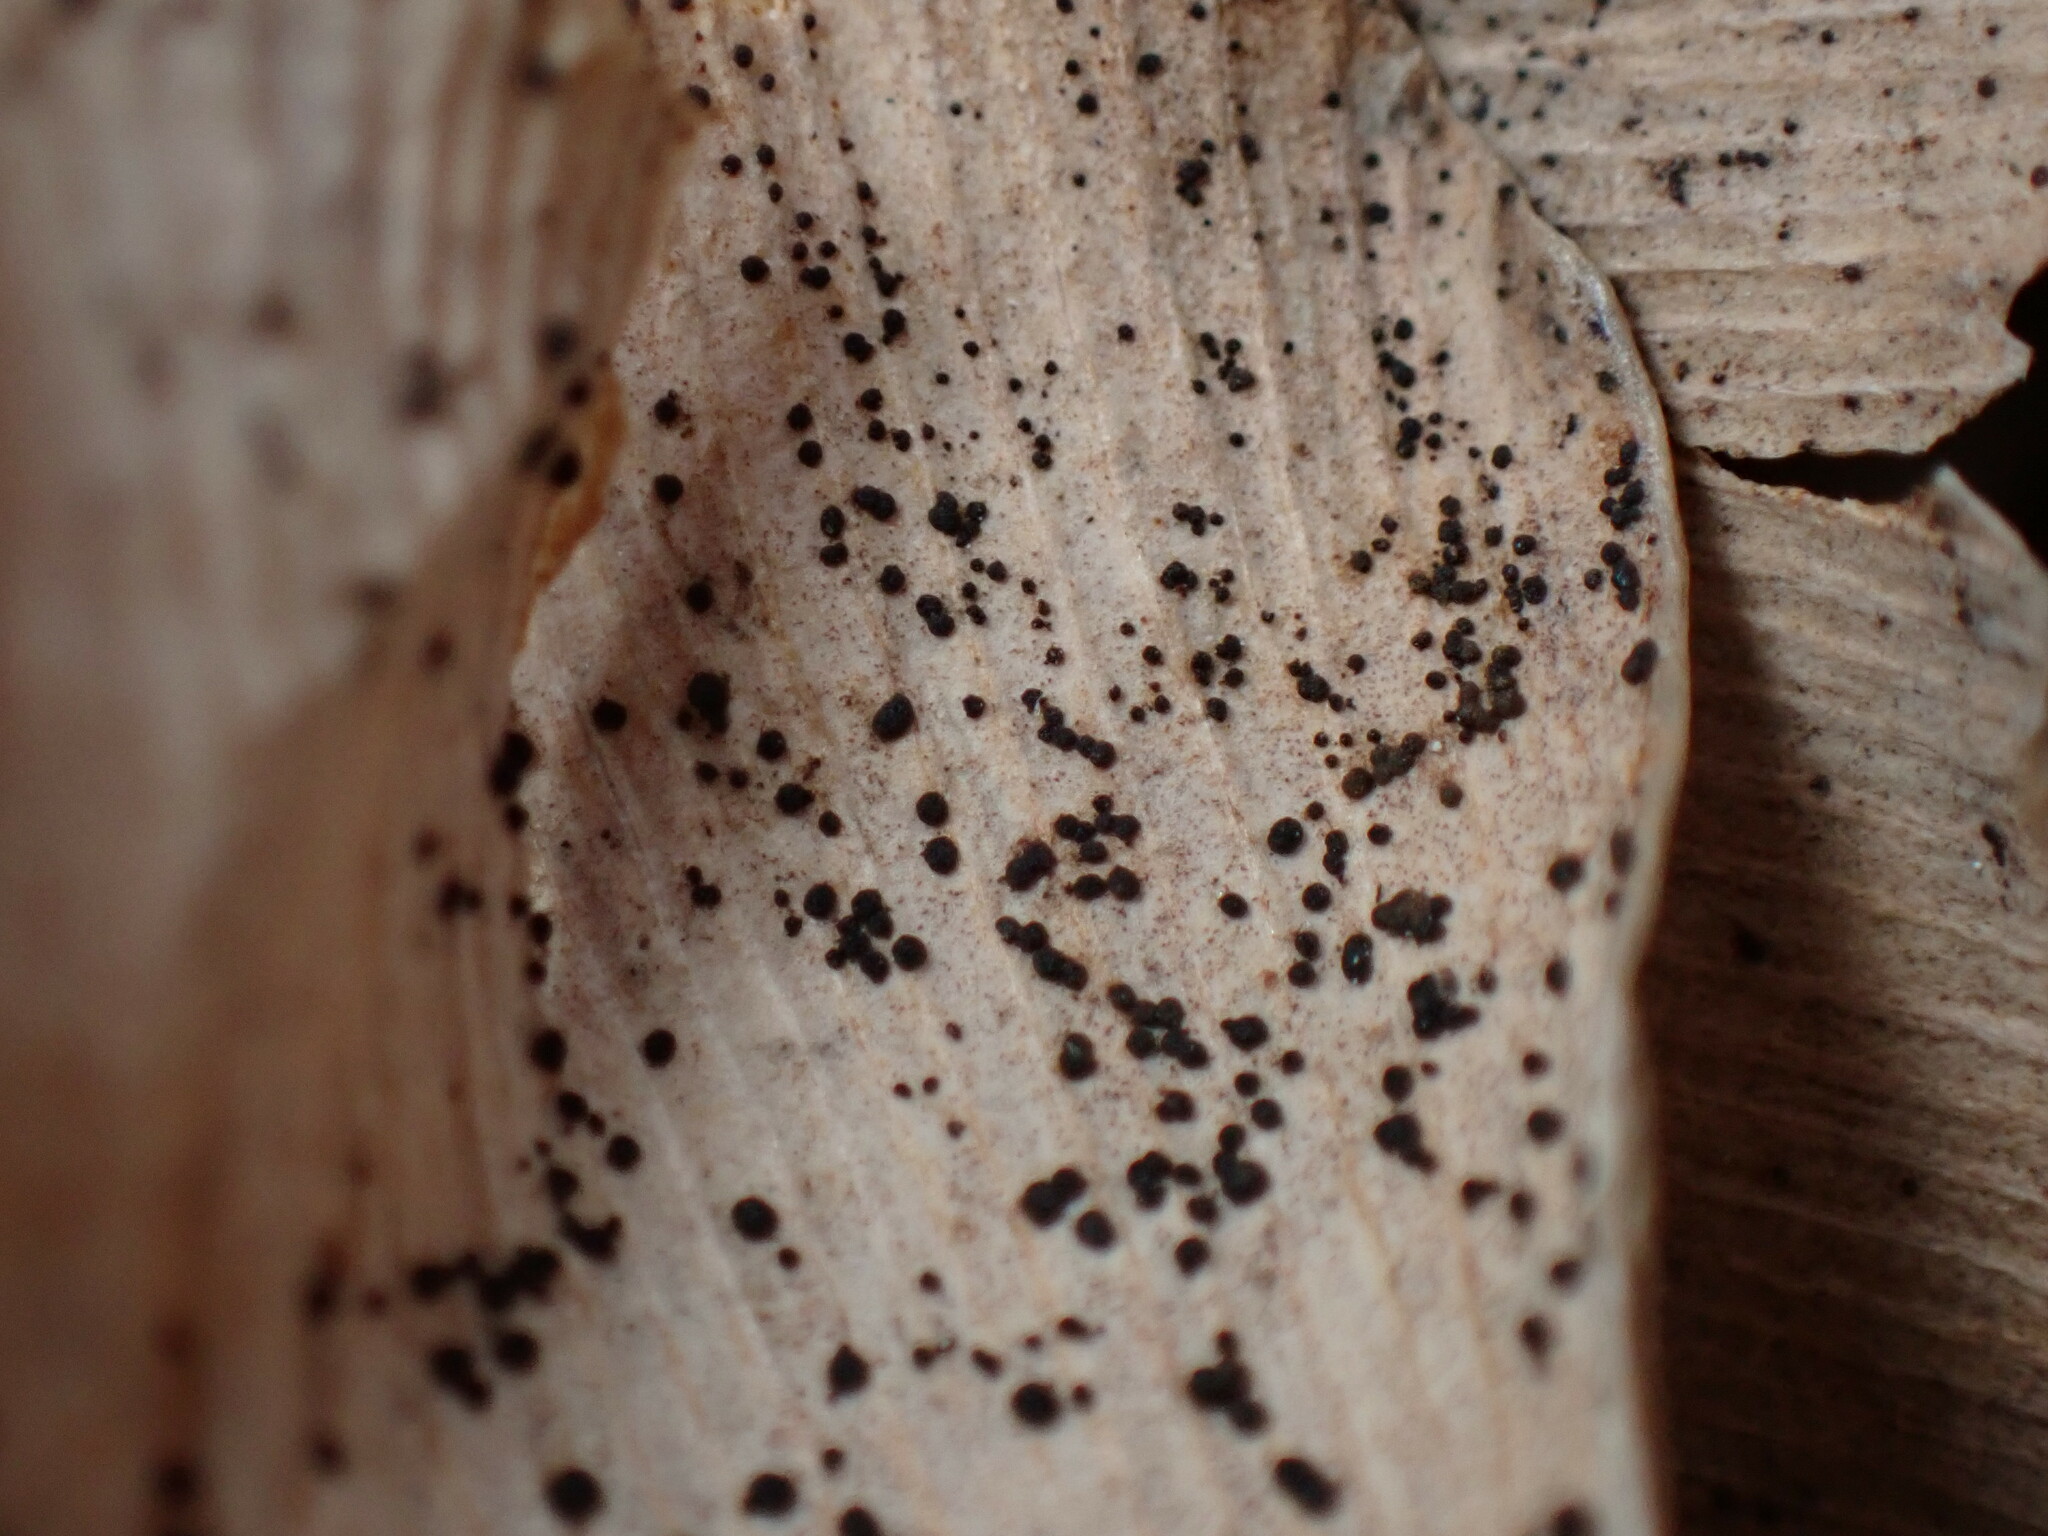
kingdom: Fungi
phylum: Basidiomycota
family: Bartheletiaceae
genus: Bartheletia
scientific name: Bartheletia paradoxa
